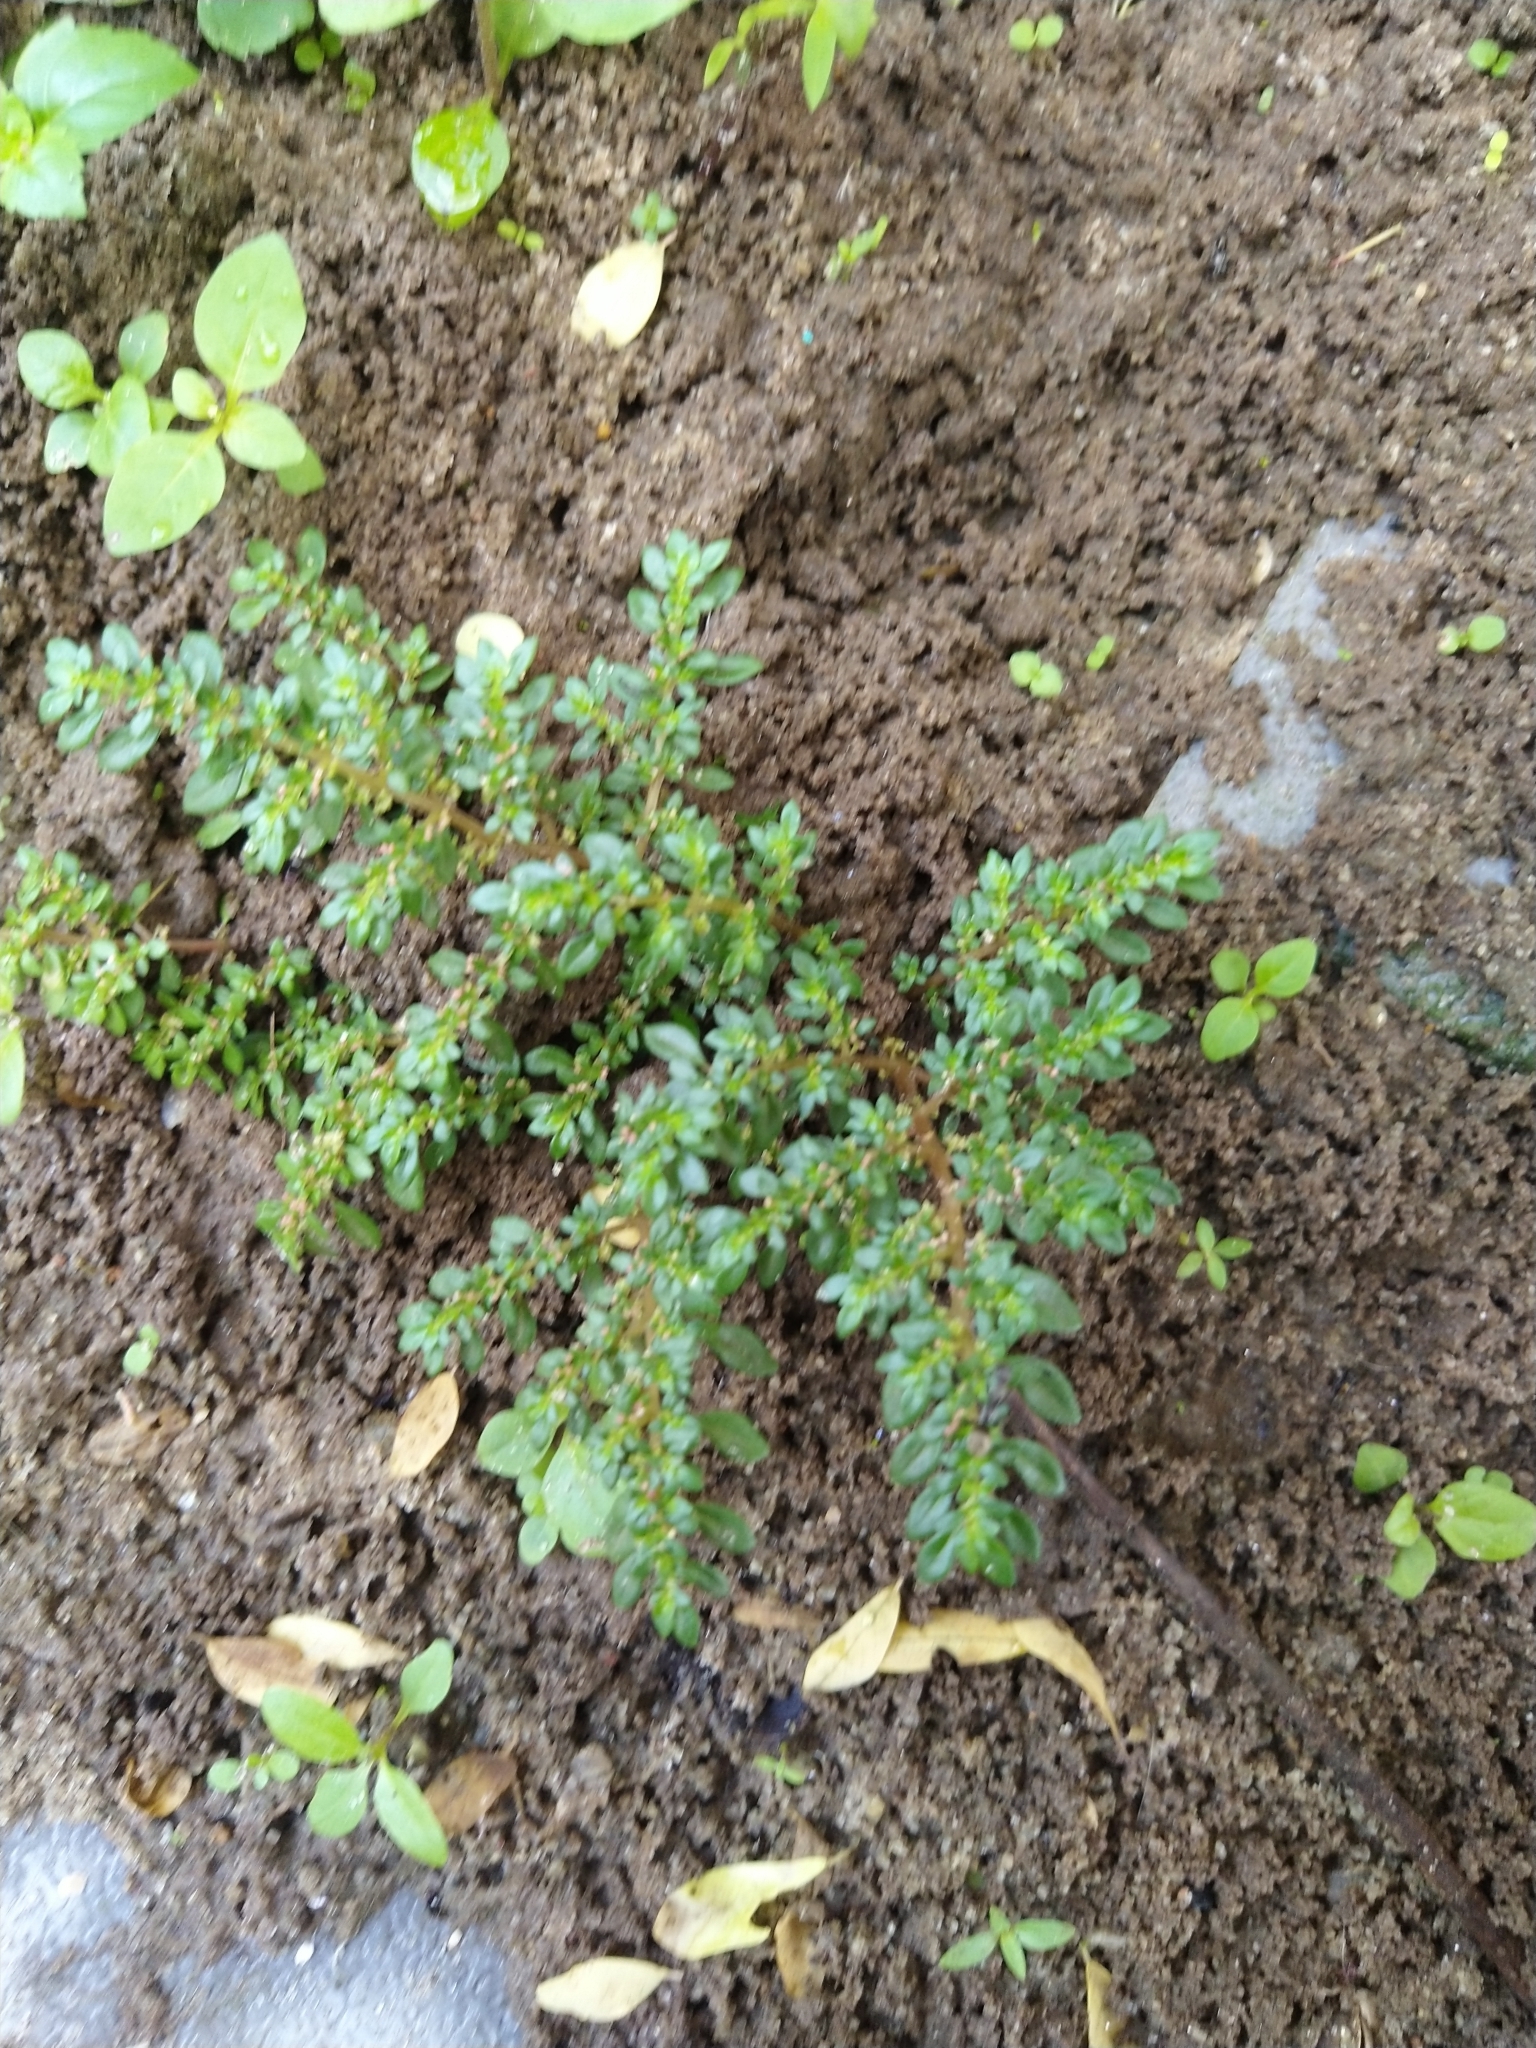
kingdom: Plantae
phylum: Tracheophyta
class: Magnoliopsida
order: Rosales
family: Urticaceae
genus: Pilea
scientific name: Pilea microphylla
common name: Artillery-plant
